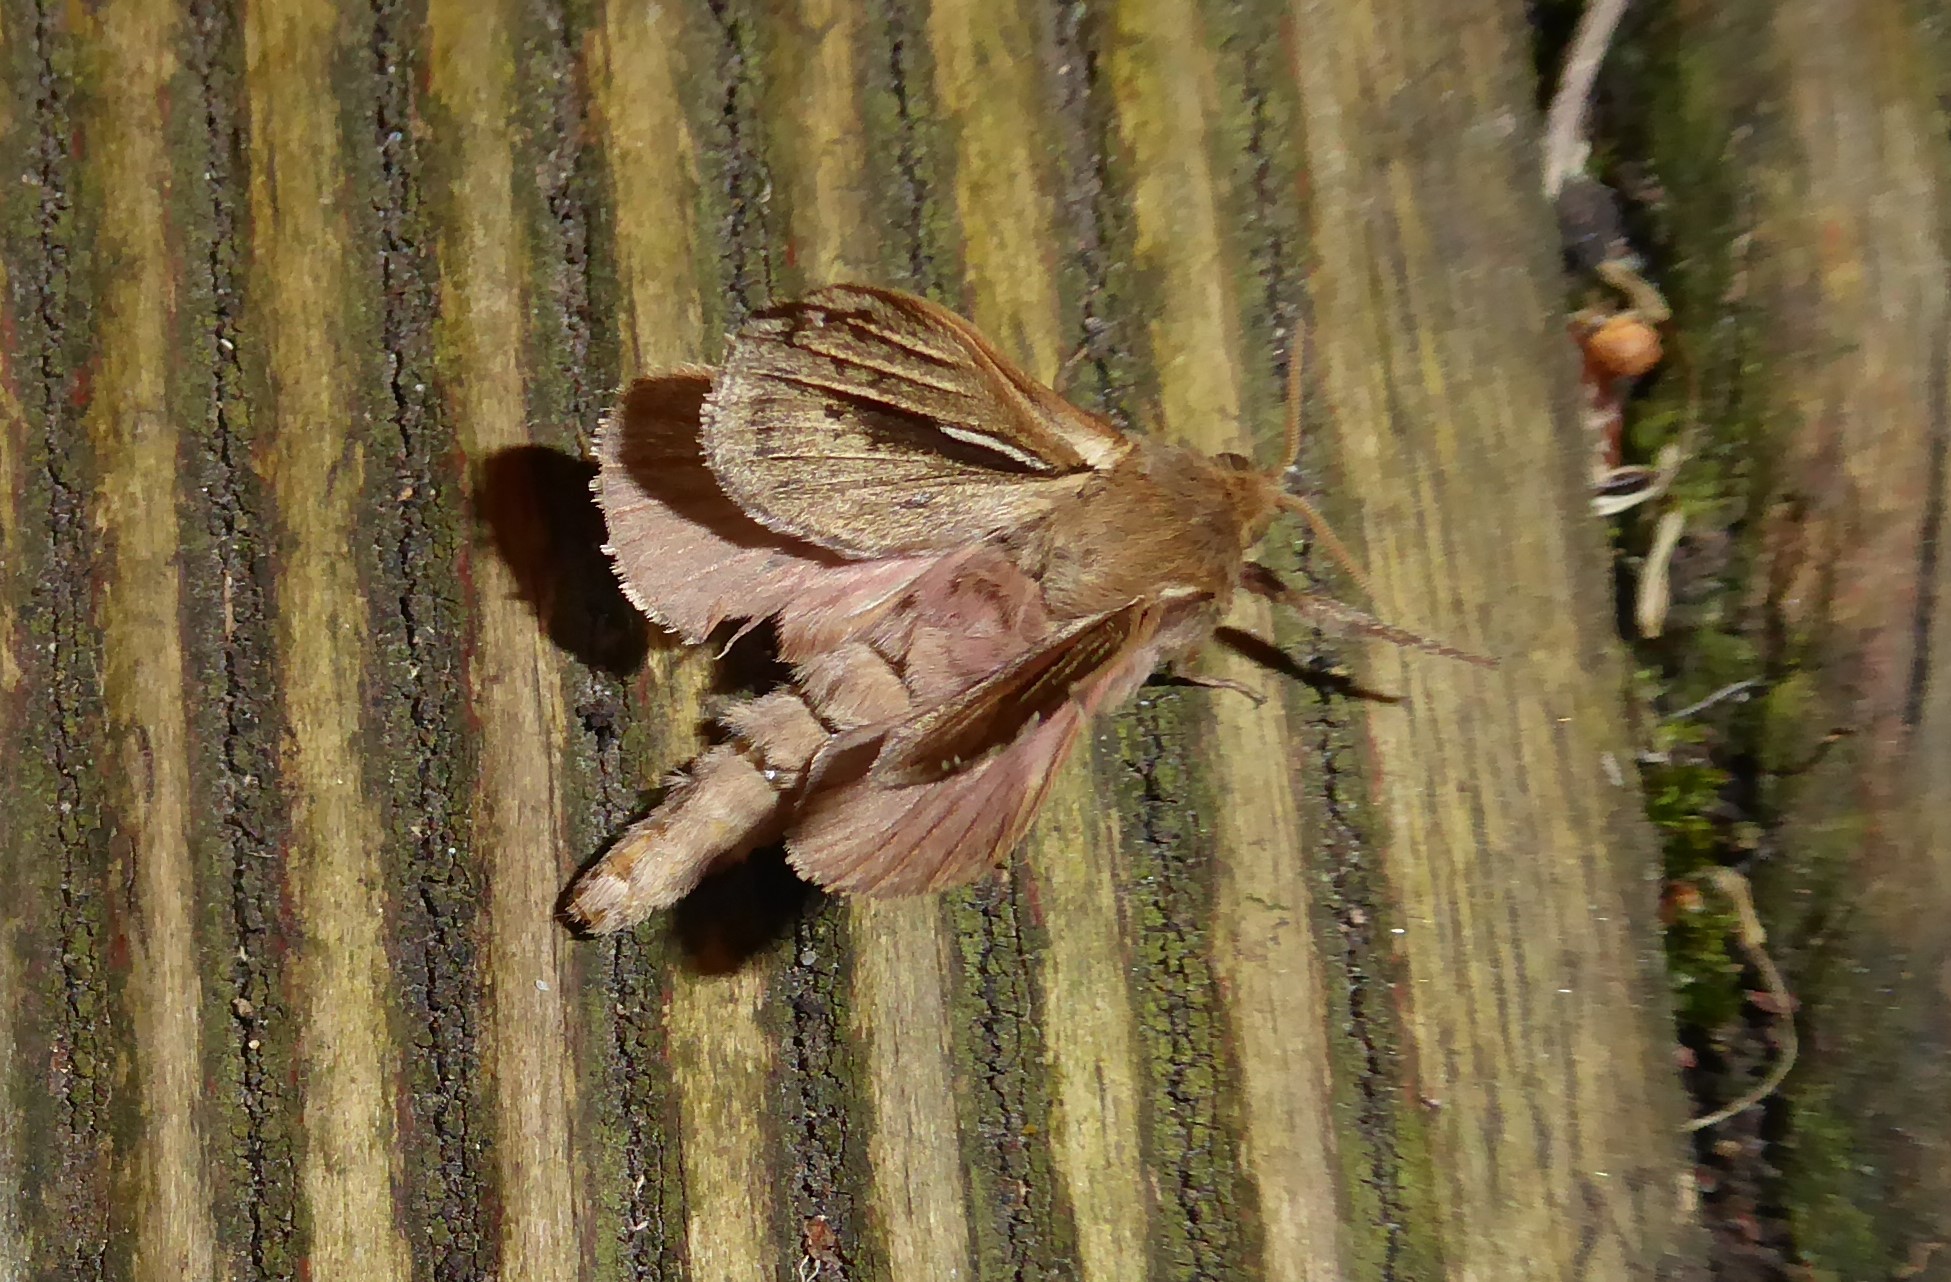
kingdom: Animalia
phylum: Arthropoda
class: Insecta
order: Lepidoptera
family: Hepialidae
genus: Wiseana
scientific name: Wiseana umbraculatus
